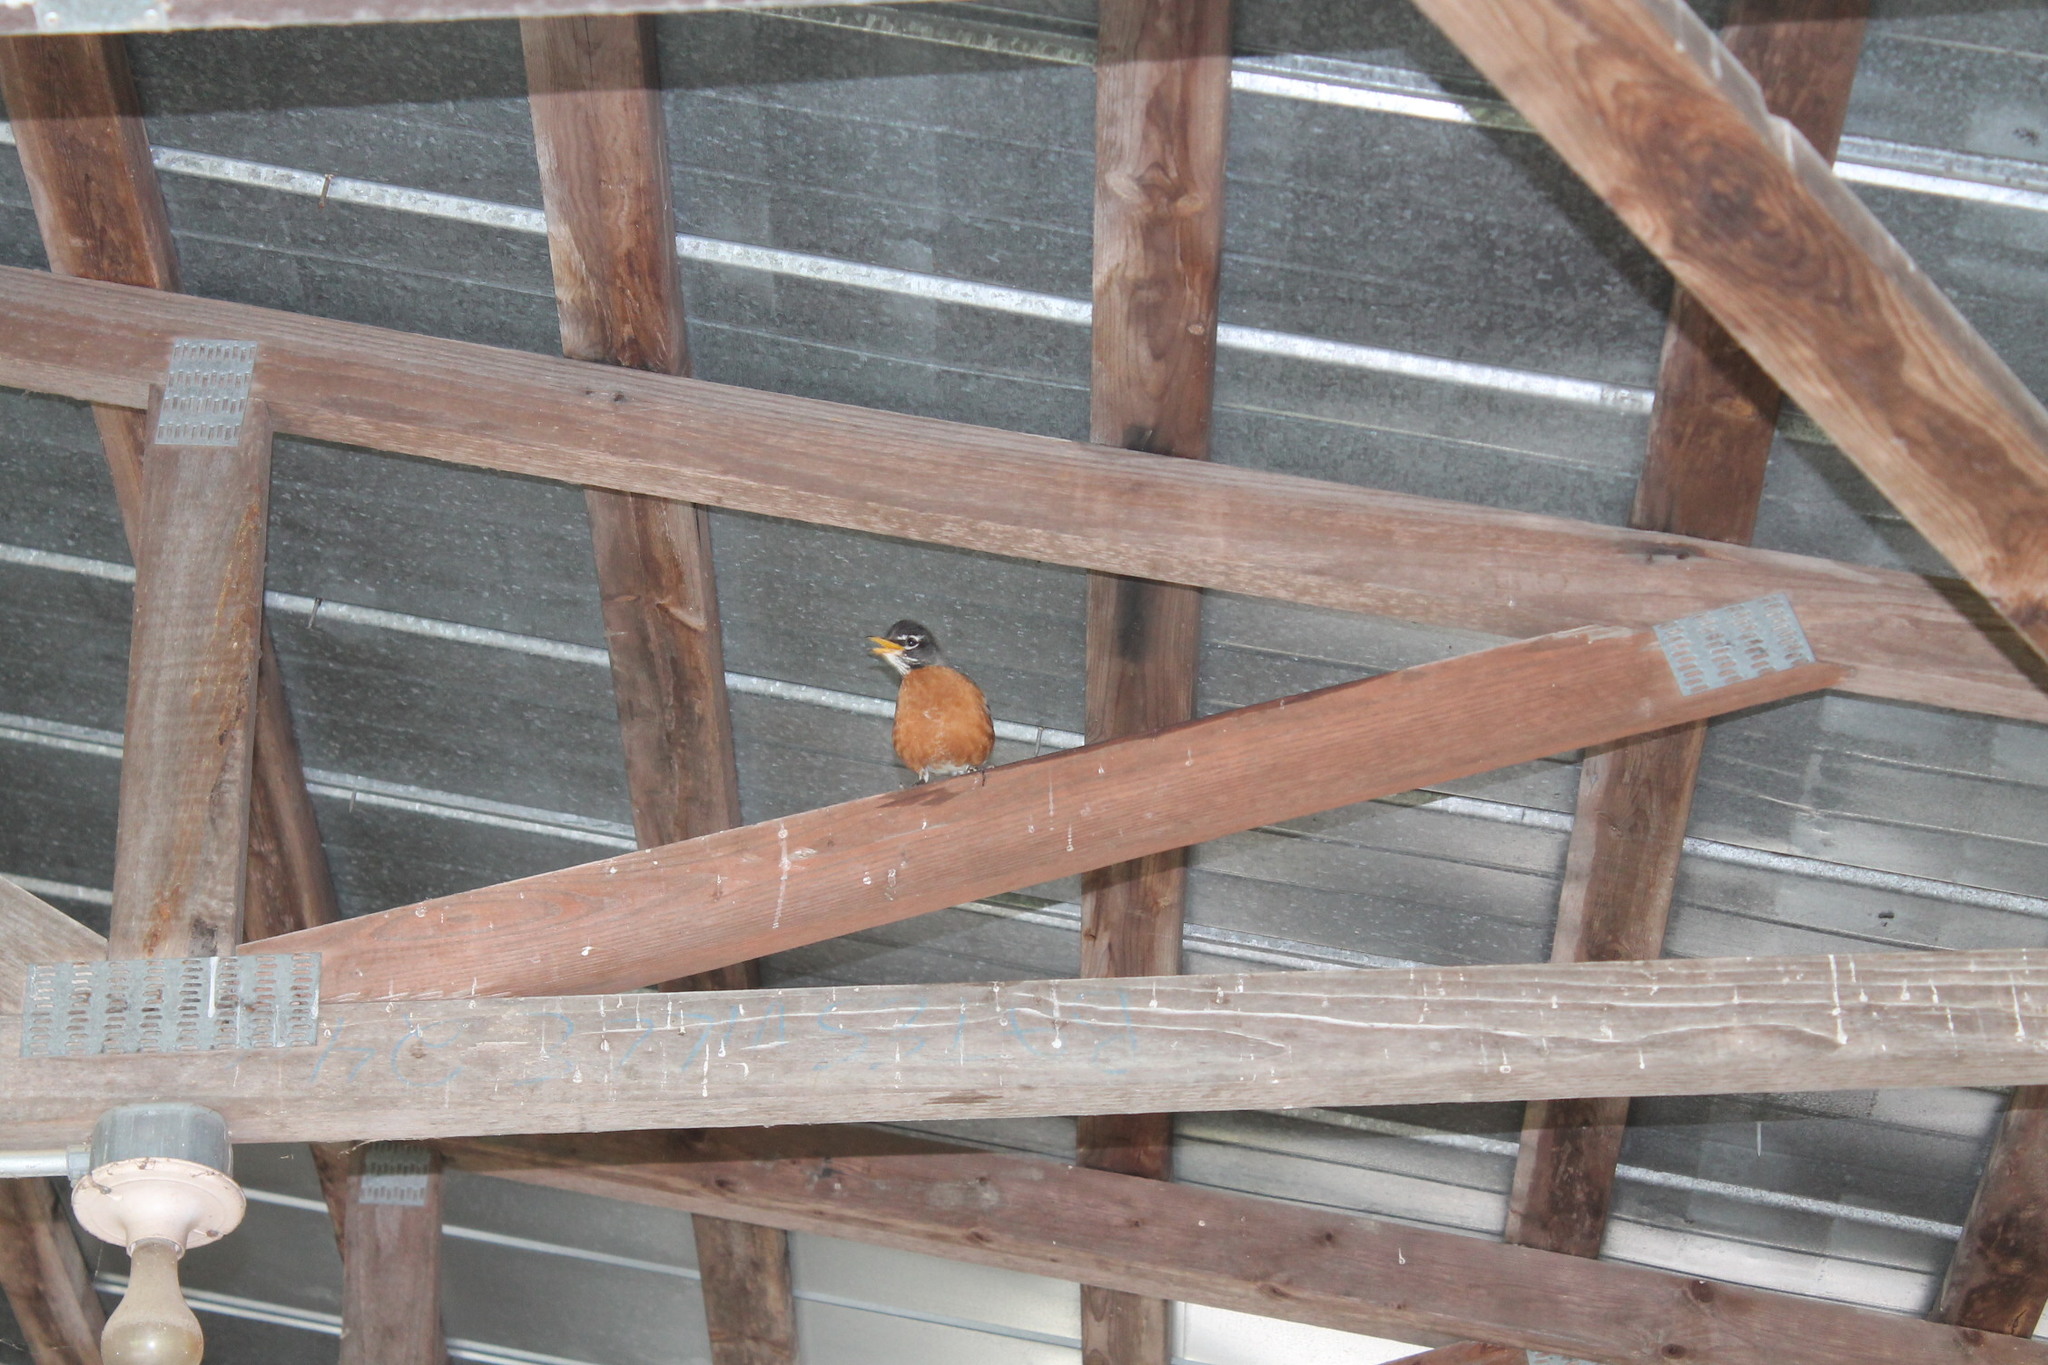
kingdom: Animalia
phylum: Chordata
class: Aves
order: Passeriformes
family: Turdidae
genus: Turdus
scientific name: Turdus migratorius
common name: American robin
